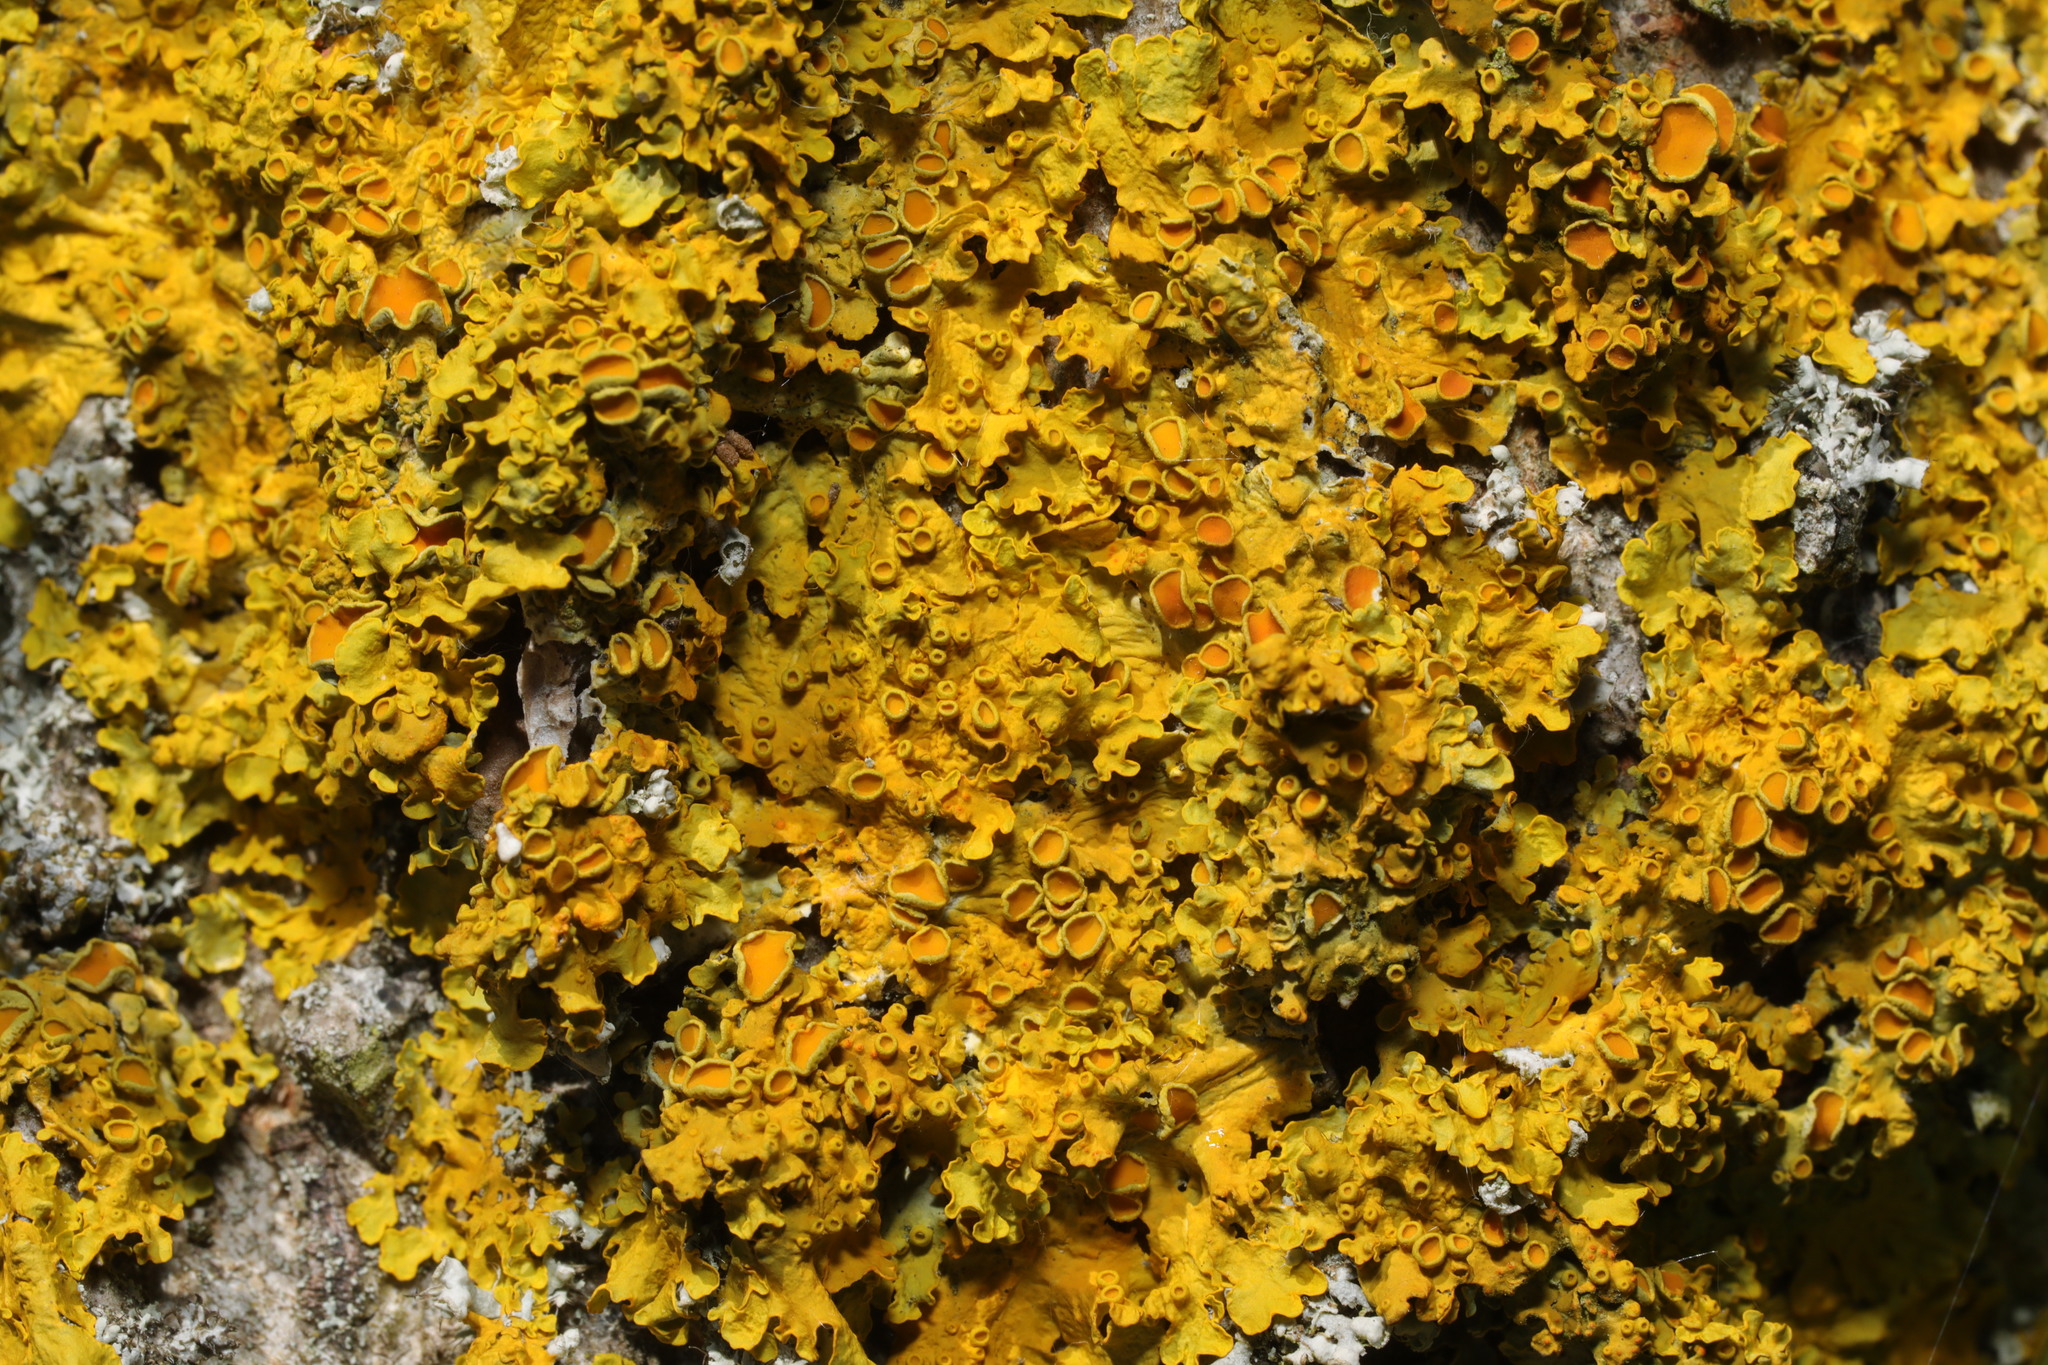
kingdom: Fungi
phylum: Ascomycota
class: Lecanoromycetes
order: Teloschistales
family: Teloschistaceae
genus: Xanthoria
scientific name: Xanthoria parietina
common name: Common orange lichen
